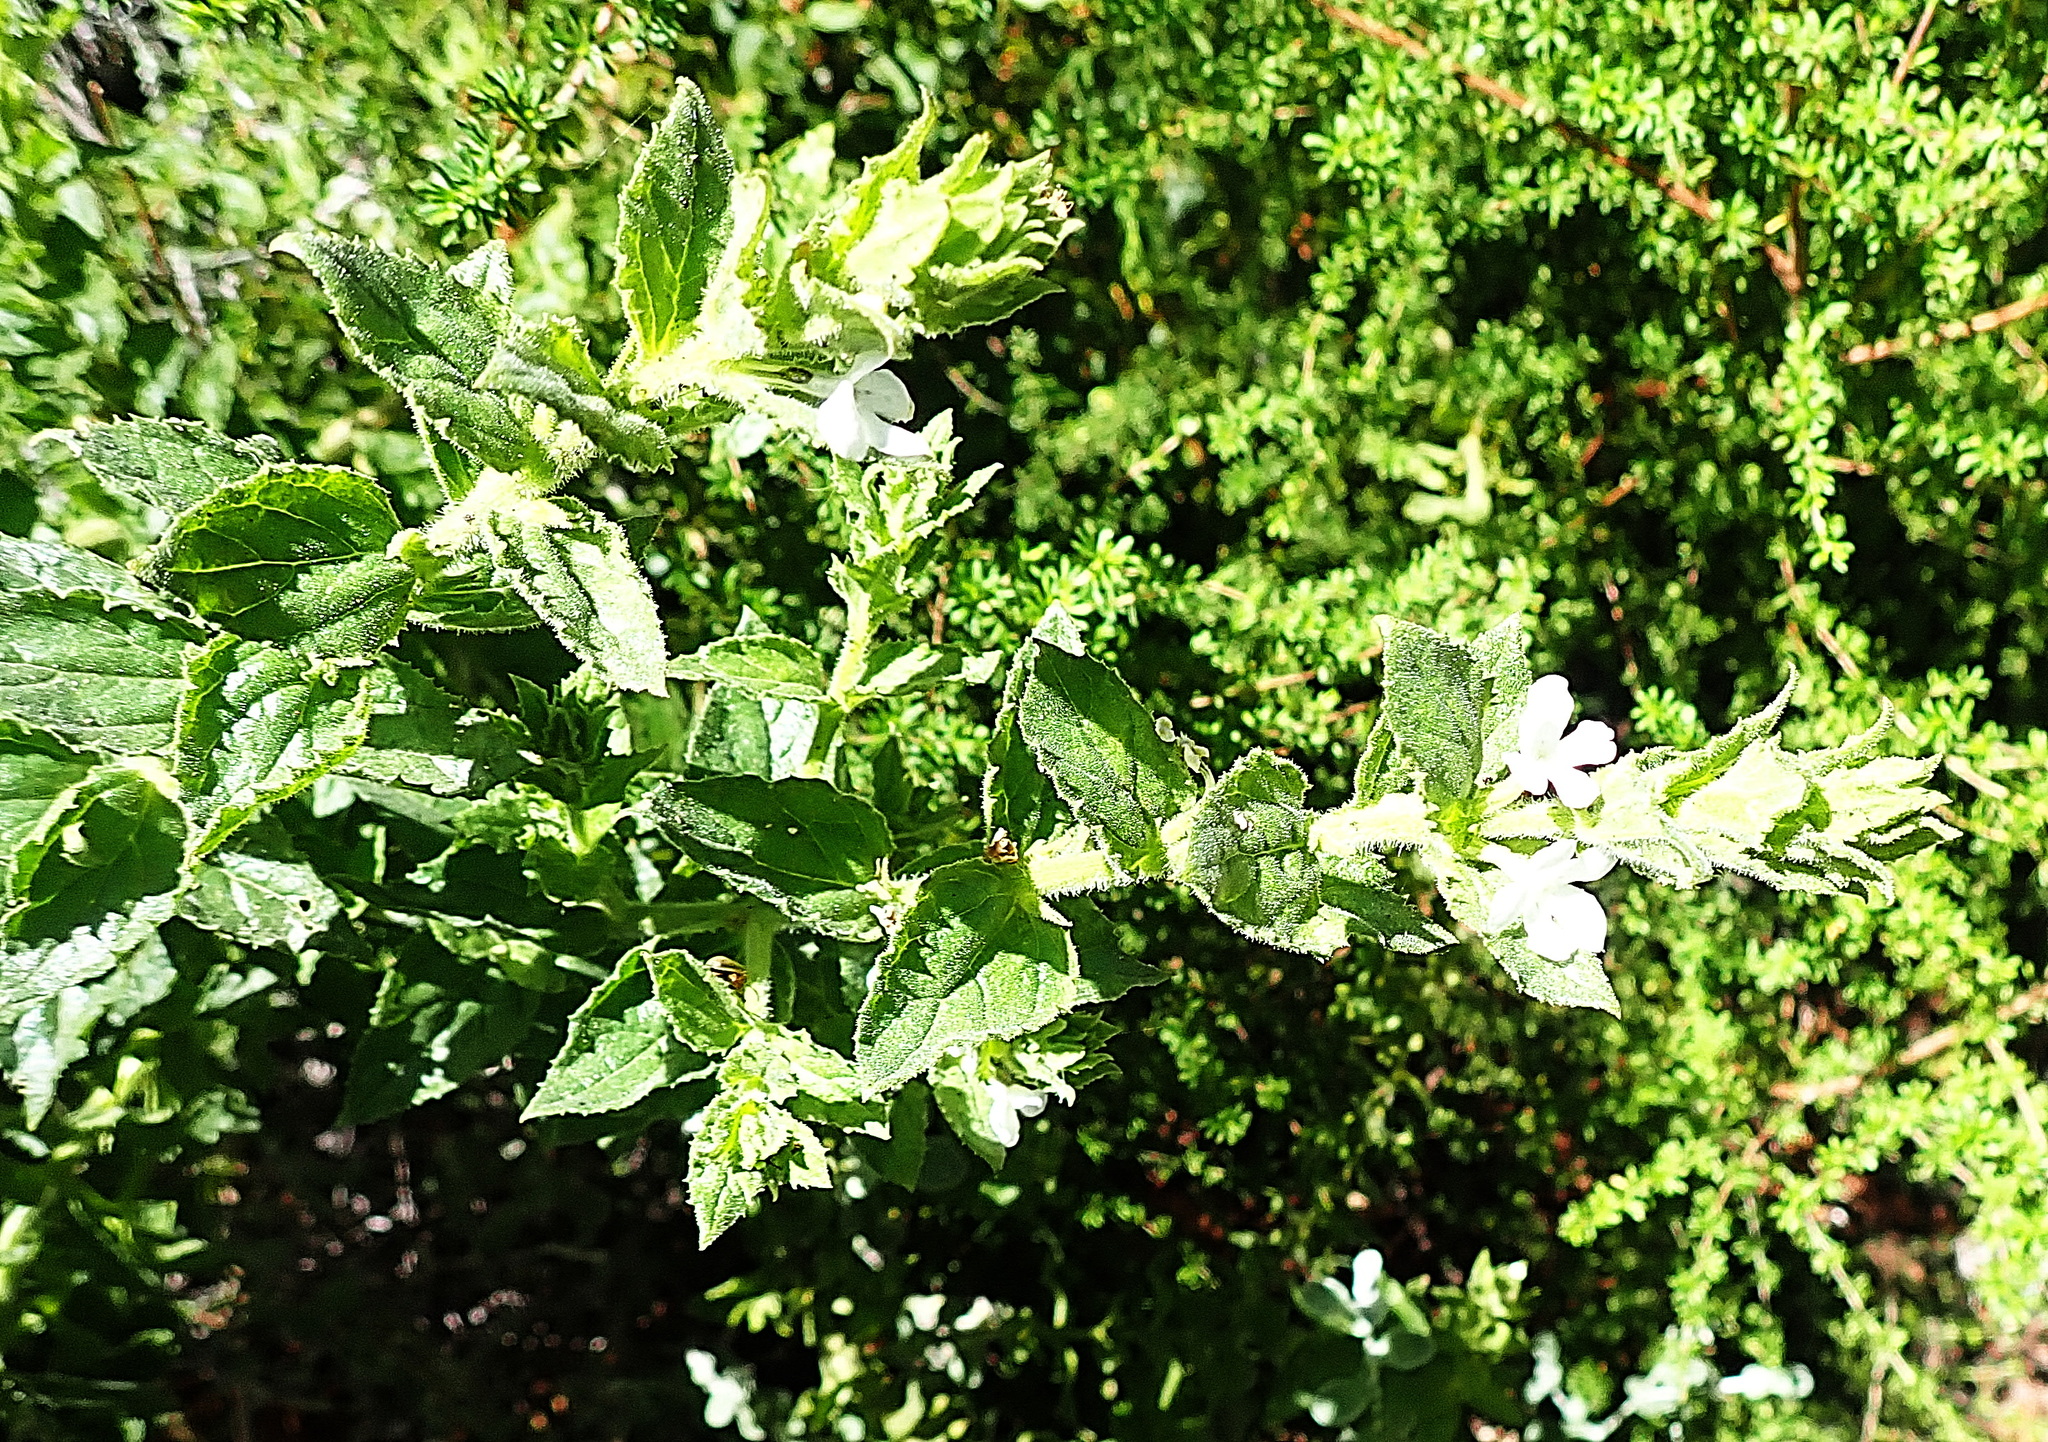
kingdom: Plantae
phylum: Tracheophyta
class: Magnoliopsida
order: Lamiales
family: Scrophulariaceae
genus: Oftia
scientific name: Oftia africana
